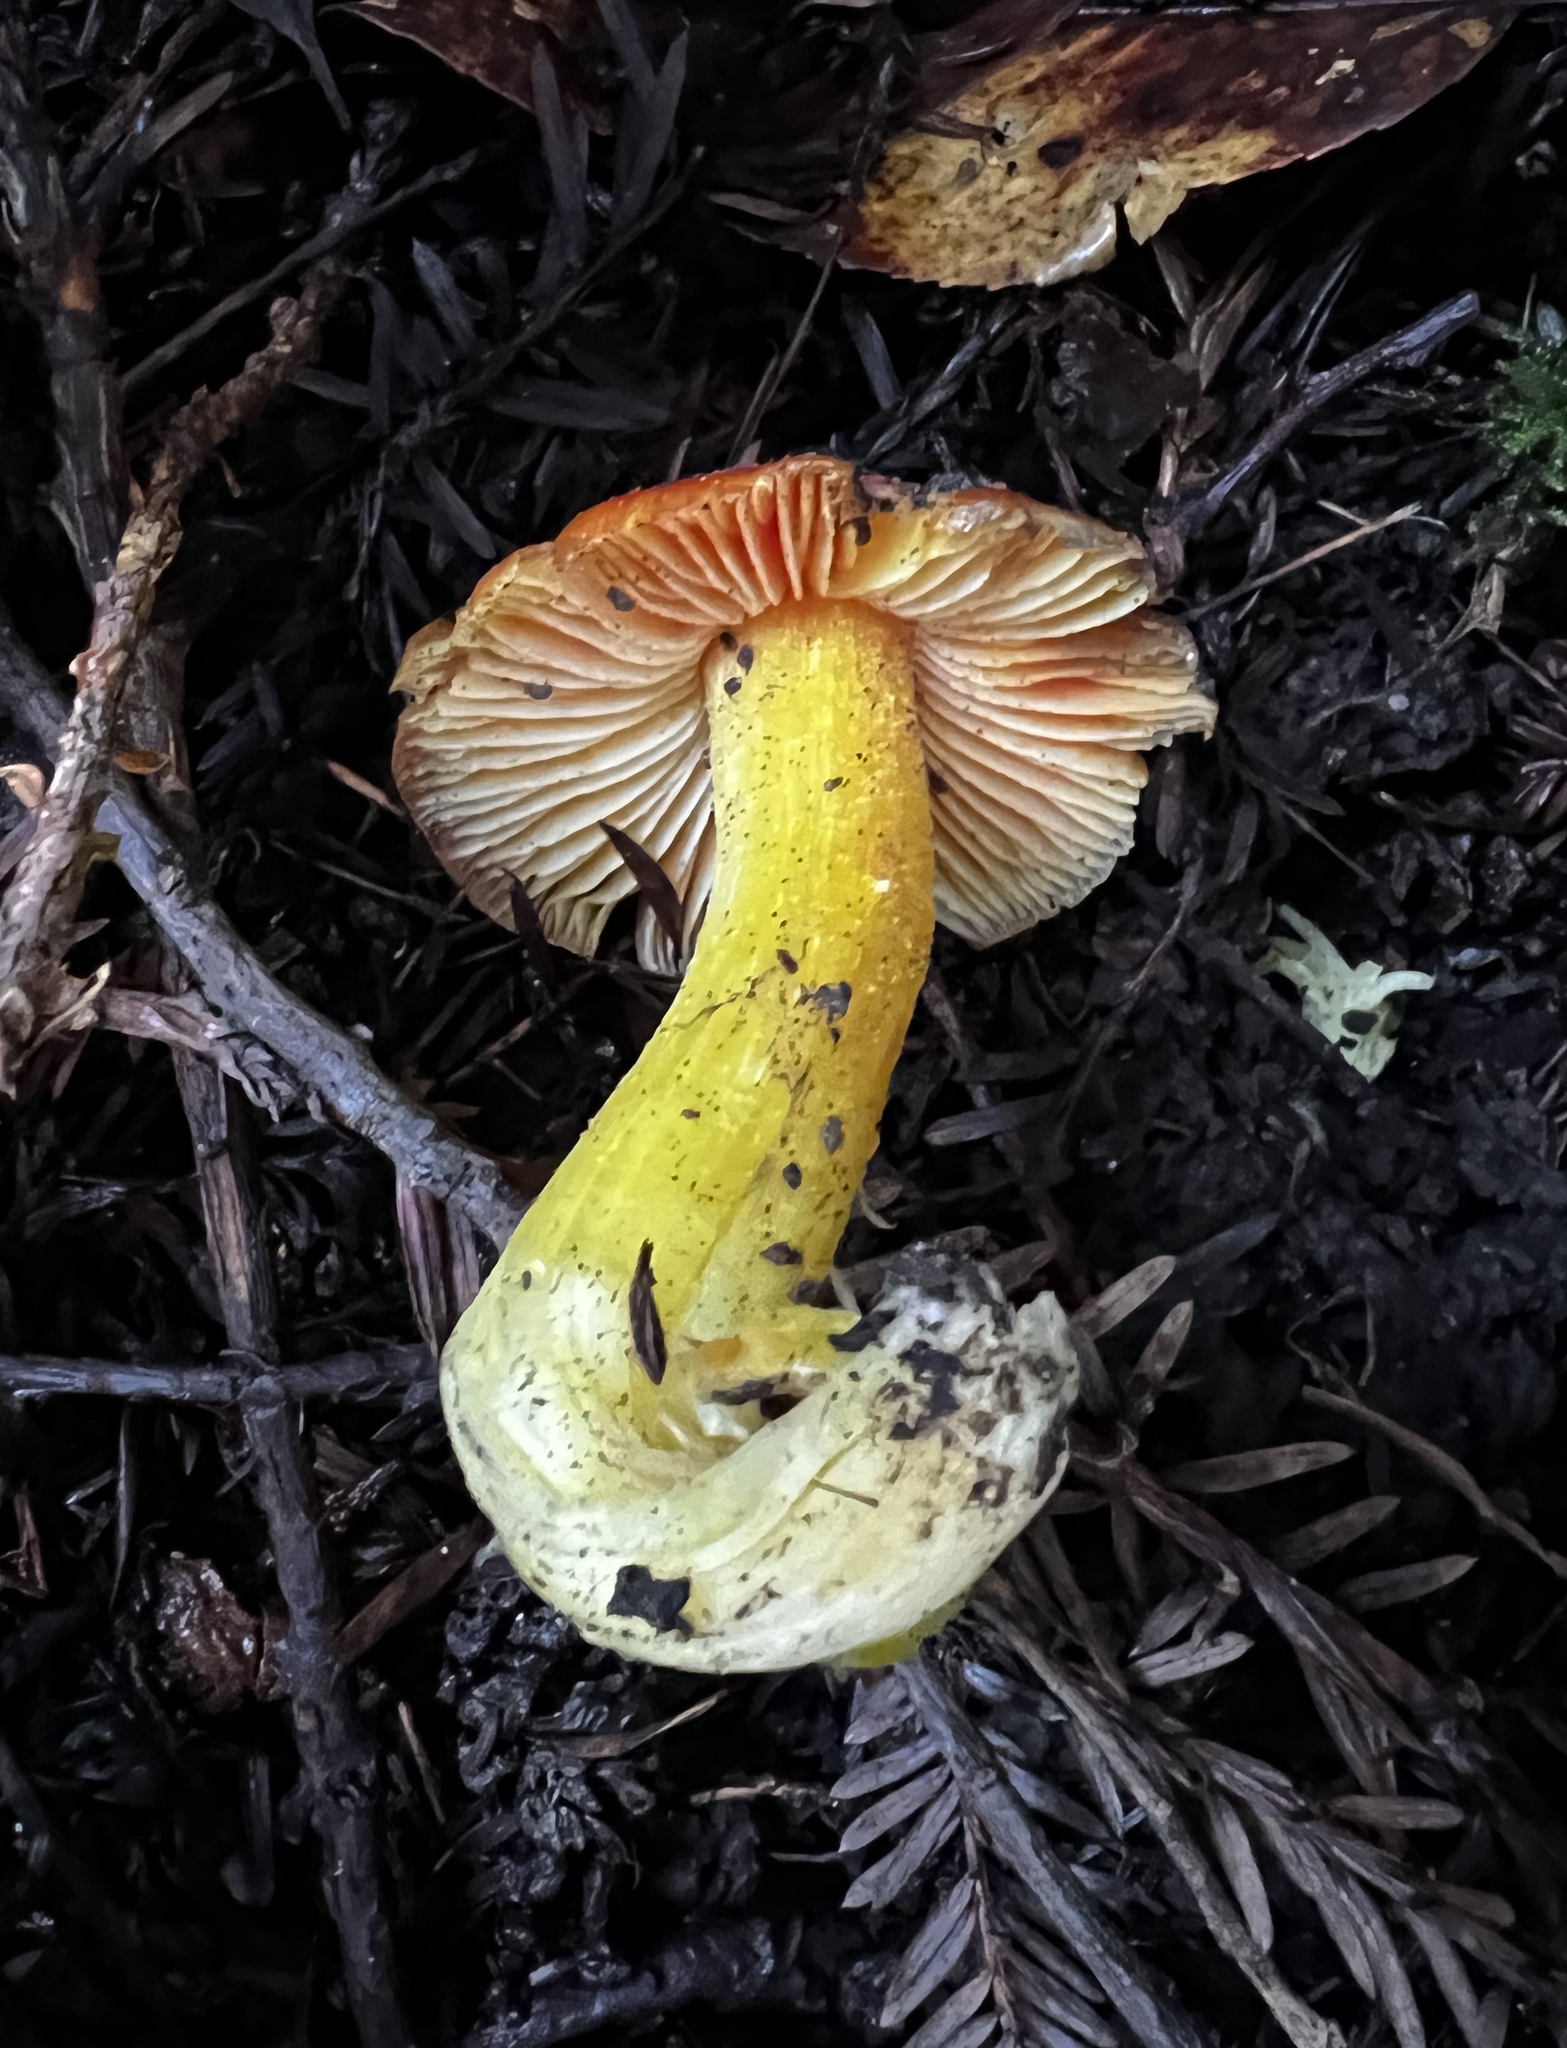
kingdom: Fungi
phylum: Basidiomycota
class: Agaricomycetes
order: Agaricales
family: Hygrophoraceae
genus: Hygrocybe
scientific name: Hygrocybe laetissima
